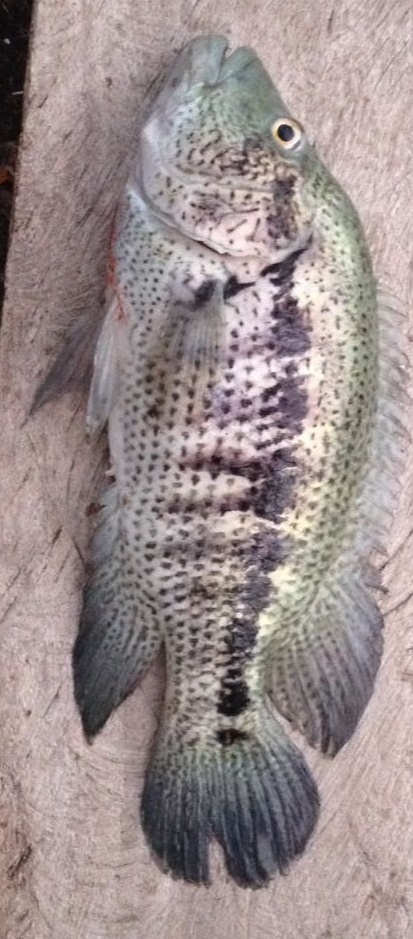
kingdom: Animalia
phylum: Chordata
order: Perciformes
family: Cichlidae
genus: Parachromis
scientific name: Parachromis dovii
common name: Guapote
